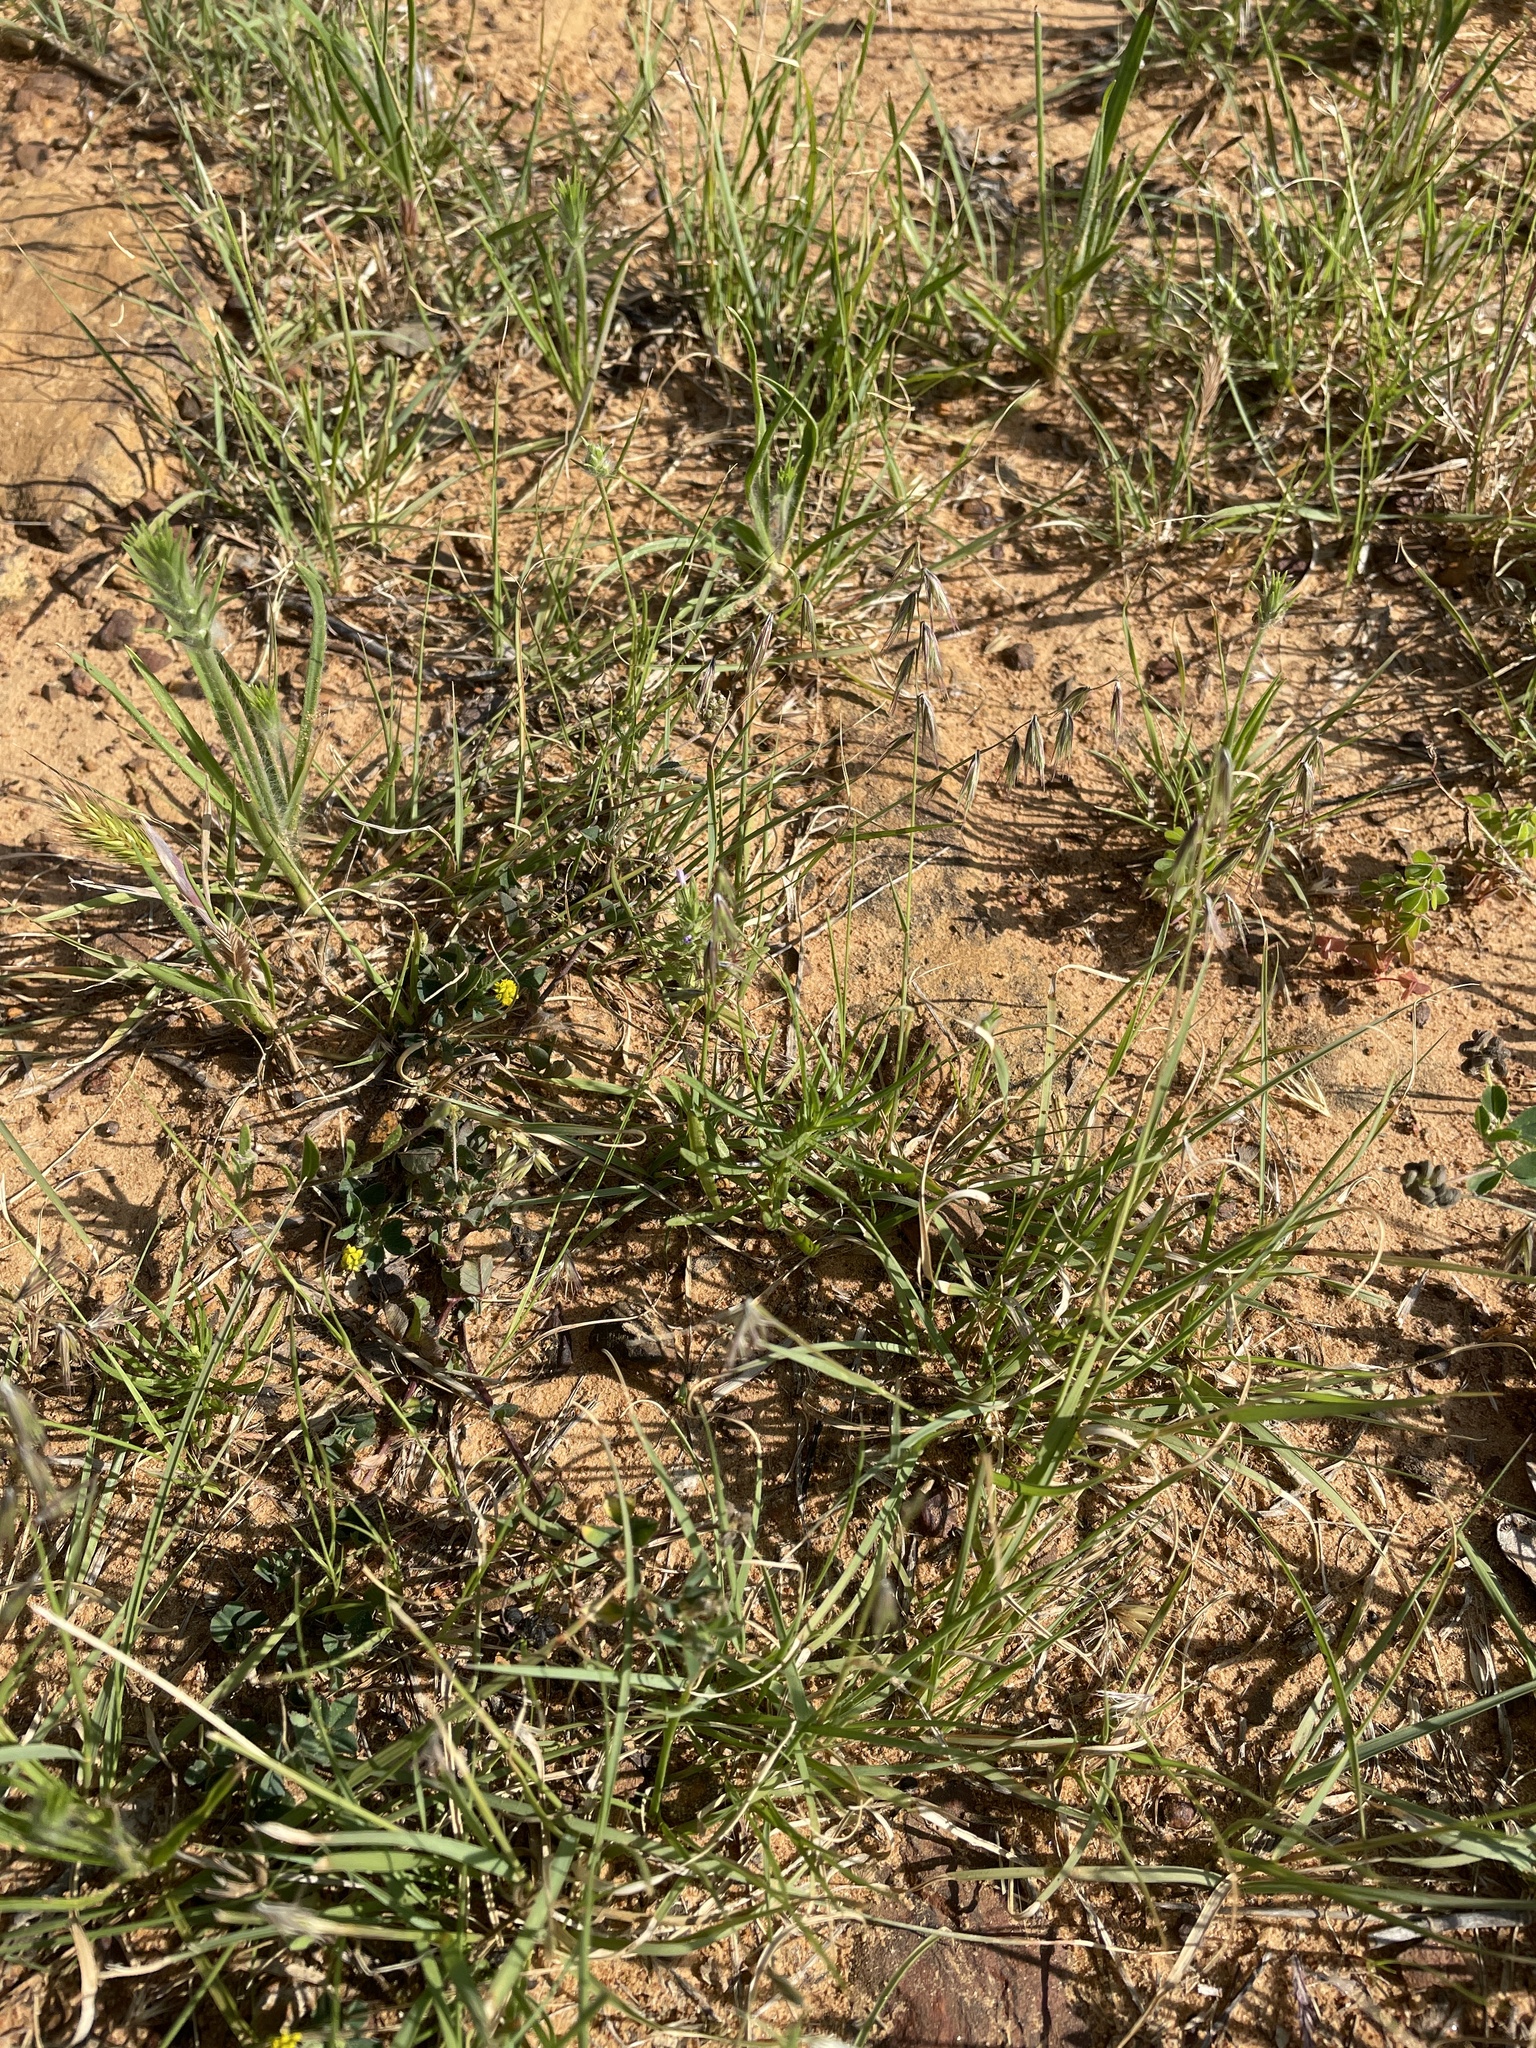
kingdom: Plantae
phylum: Tracheophyta
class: Liliopsida
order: Poales
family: Poaceae
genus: Bouteloua
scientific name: Bouteloua rigidiseta
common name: Texas grama
